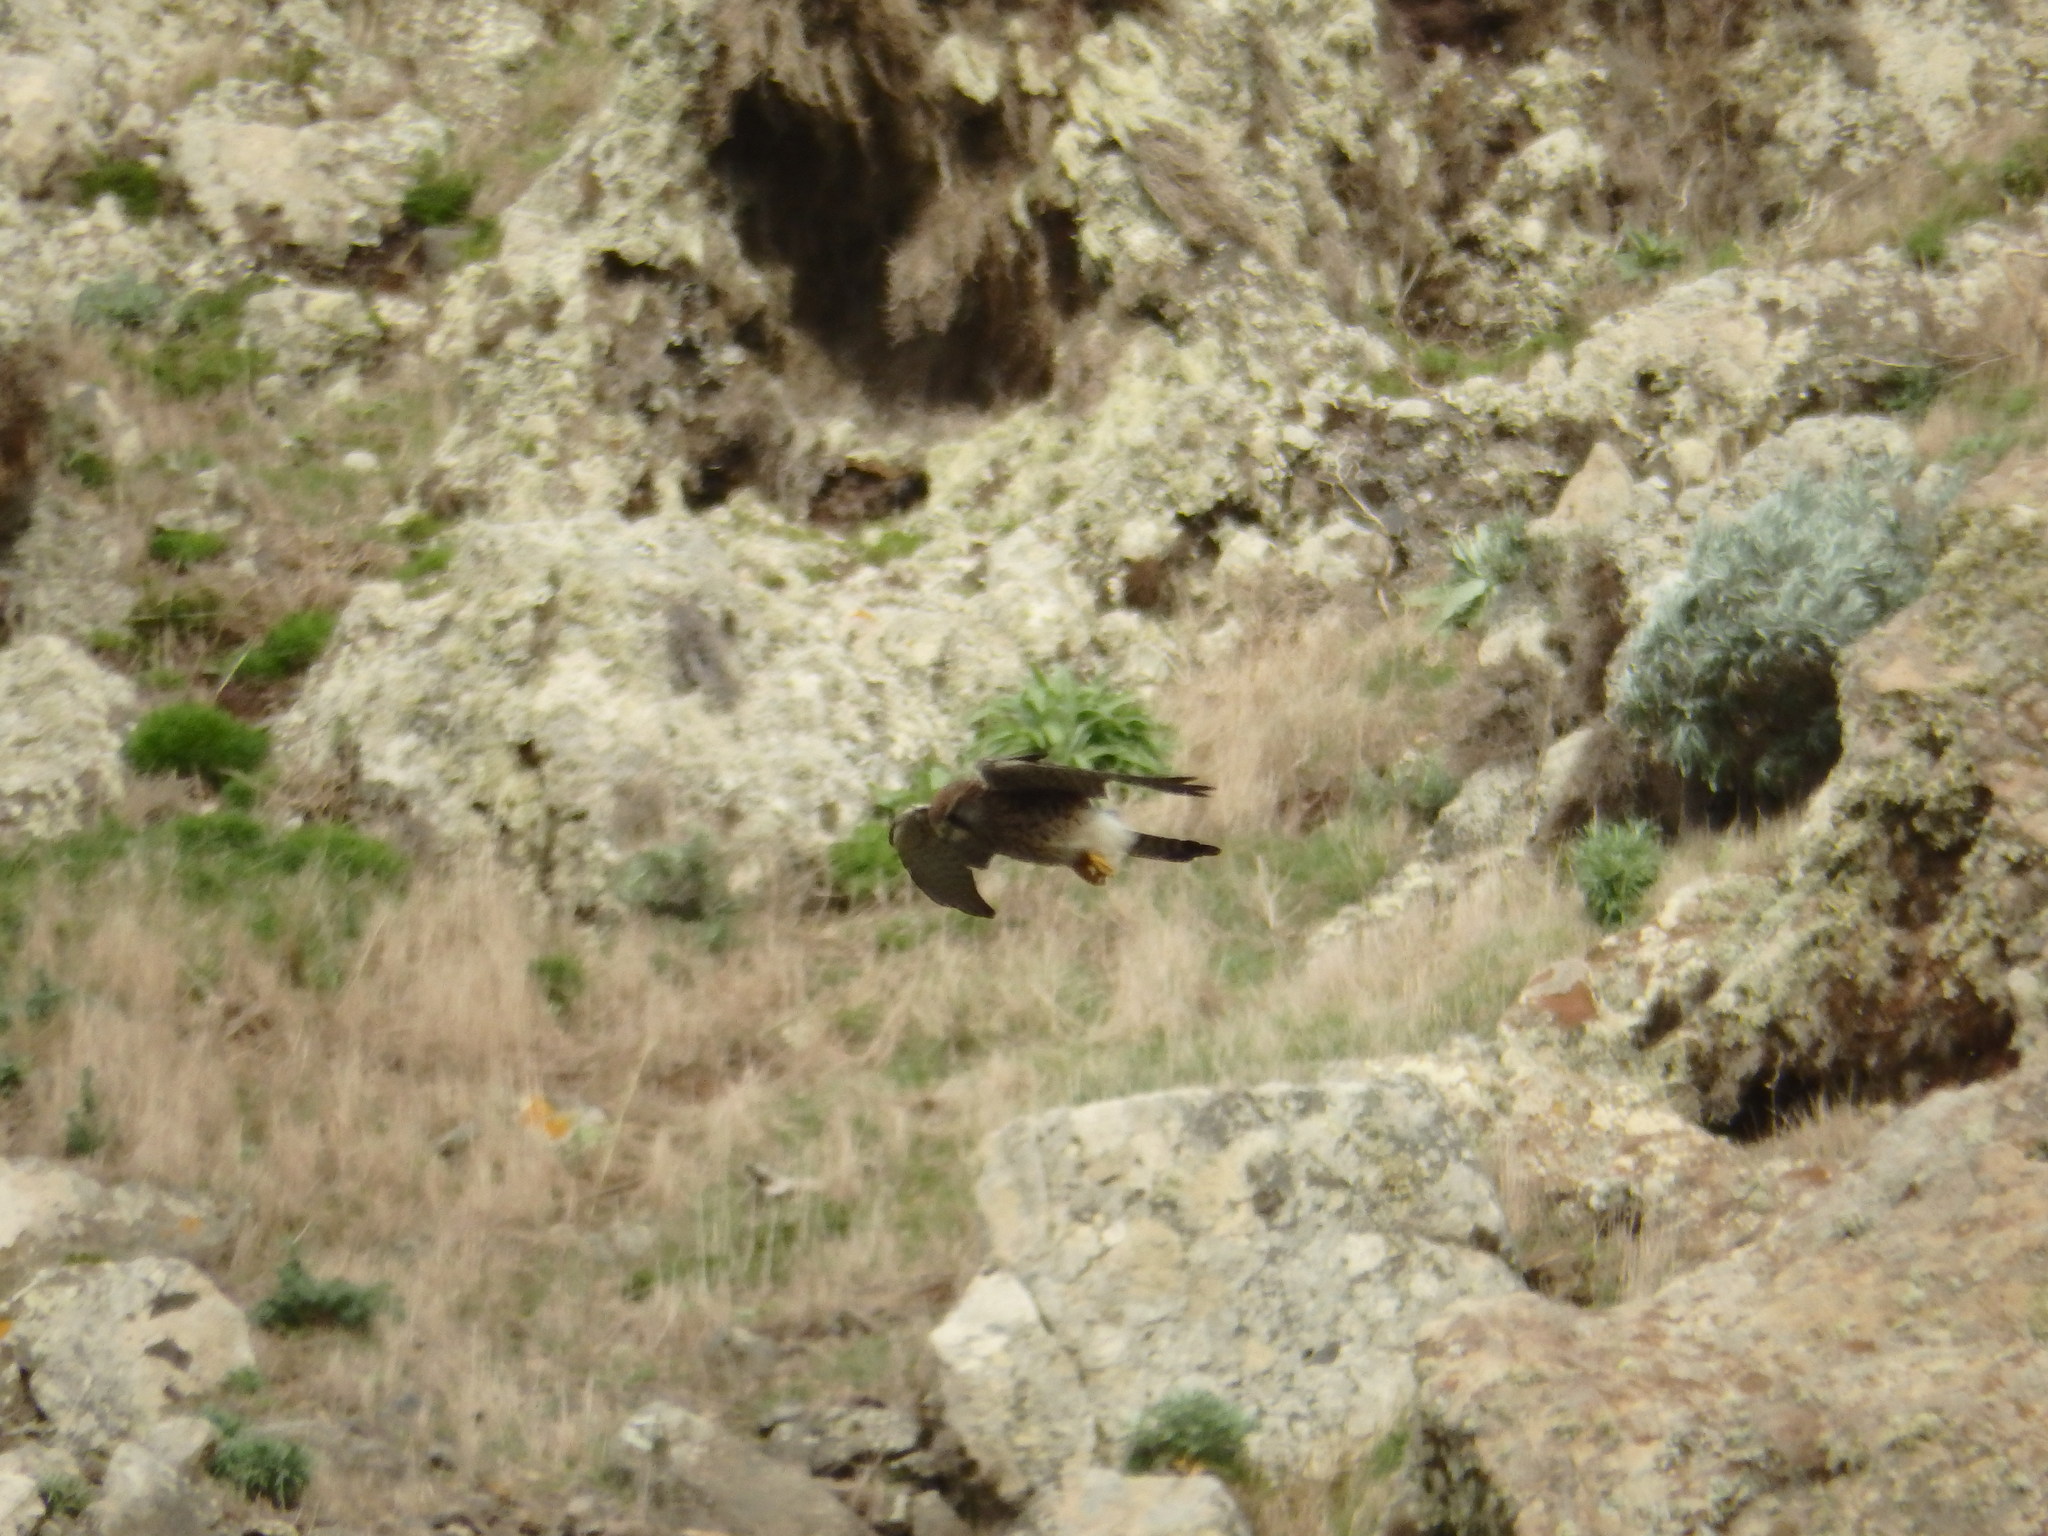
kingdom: Animalia
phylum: Chordata
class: Aves
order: Falconiformes
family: Falconidae
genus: Falco
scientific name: Falco tinnunculus
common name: Common kestrel
